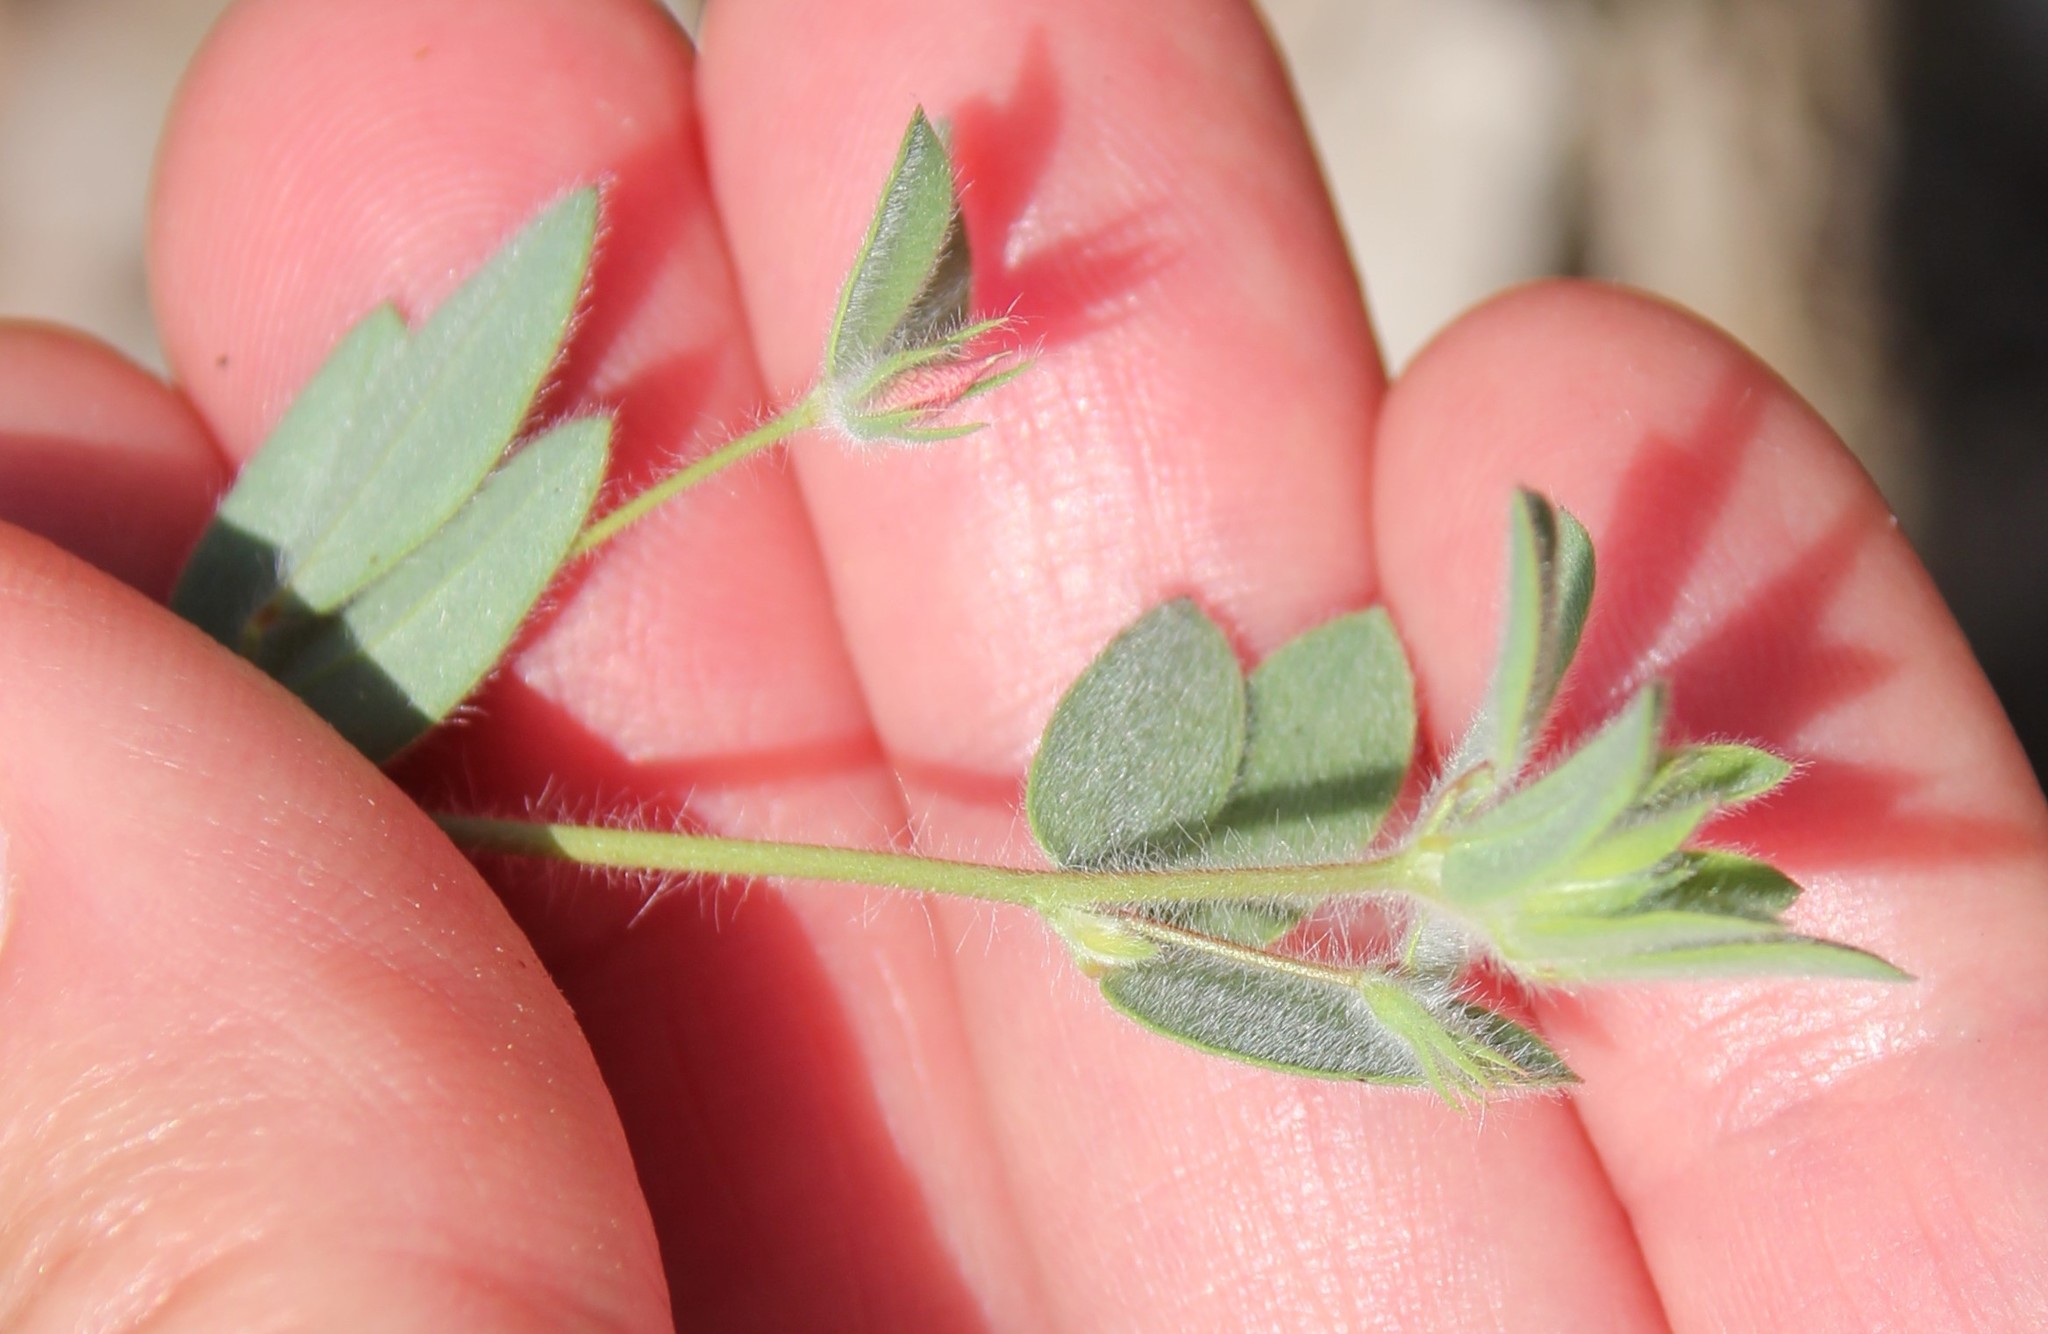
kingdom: Plantae
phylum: Tracheophyta
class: Magnoliopsida
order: Fabales
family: Fabaceae
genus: Acmispon
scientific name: Acmispon americanus
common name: American bird's-foot trefoil
